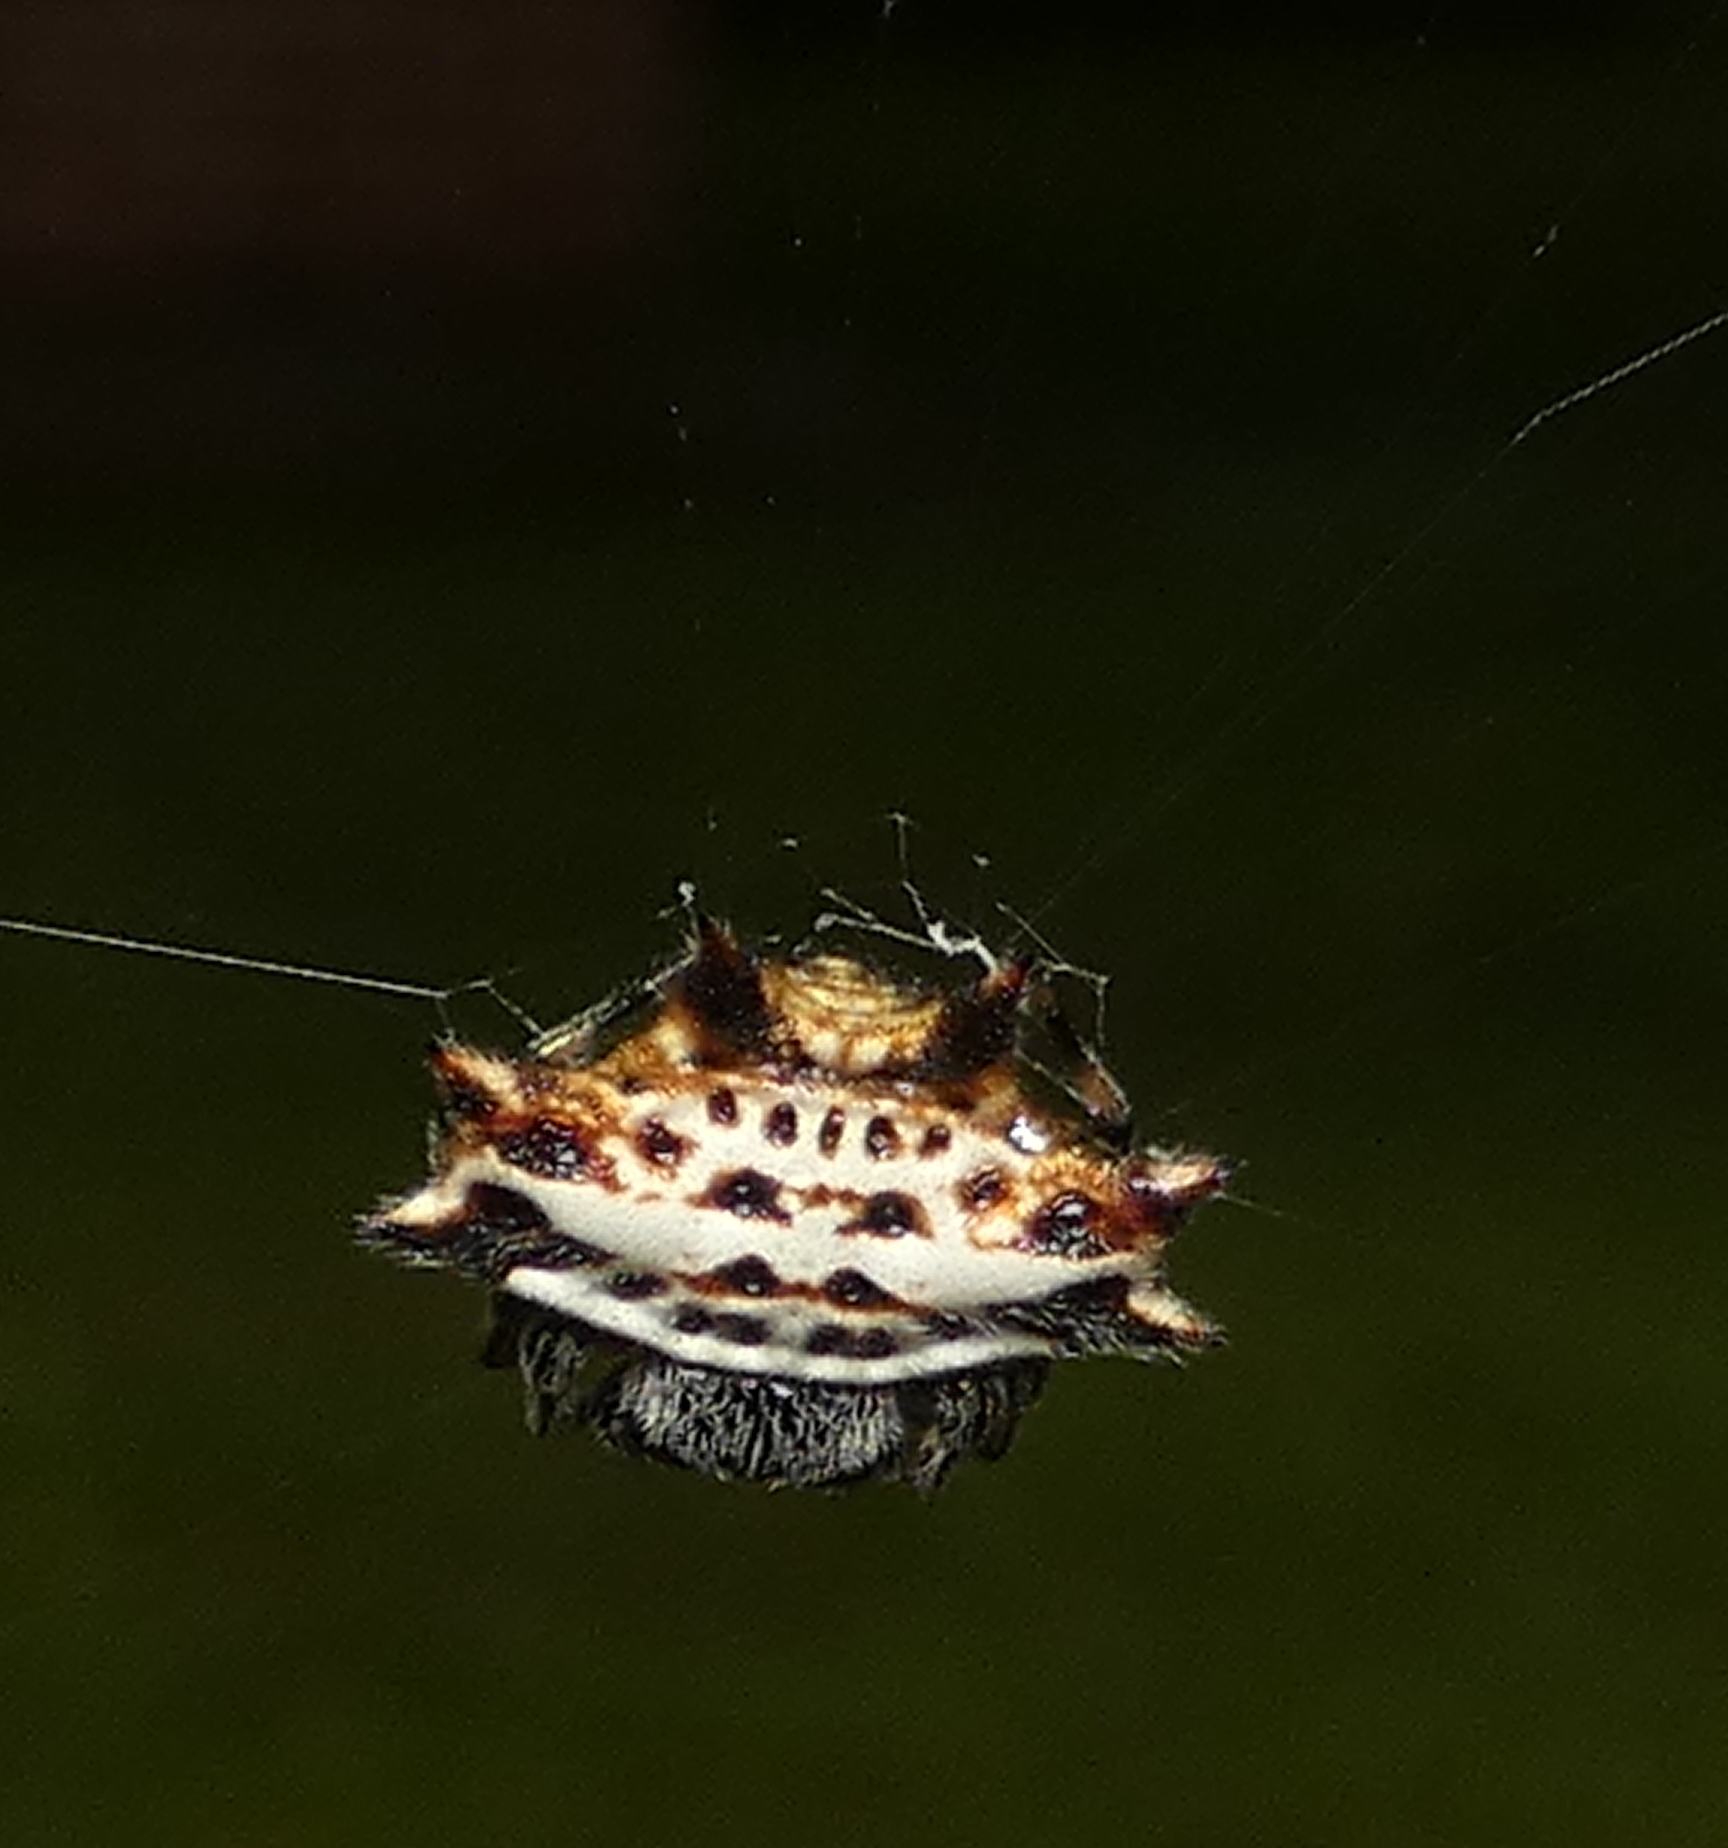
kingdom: Animalia
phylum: Arthropoda
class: Arachnida
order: Araneae
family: Araneidae
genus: Gasteracantha
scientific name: Gasteracantha cancriformis
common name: Orb weavers
